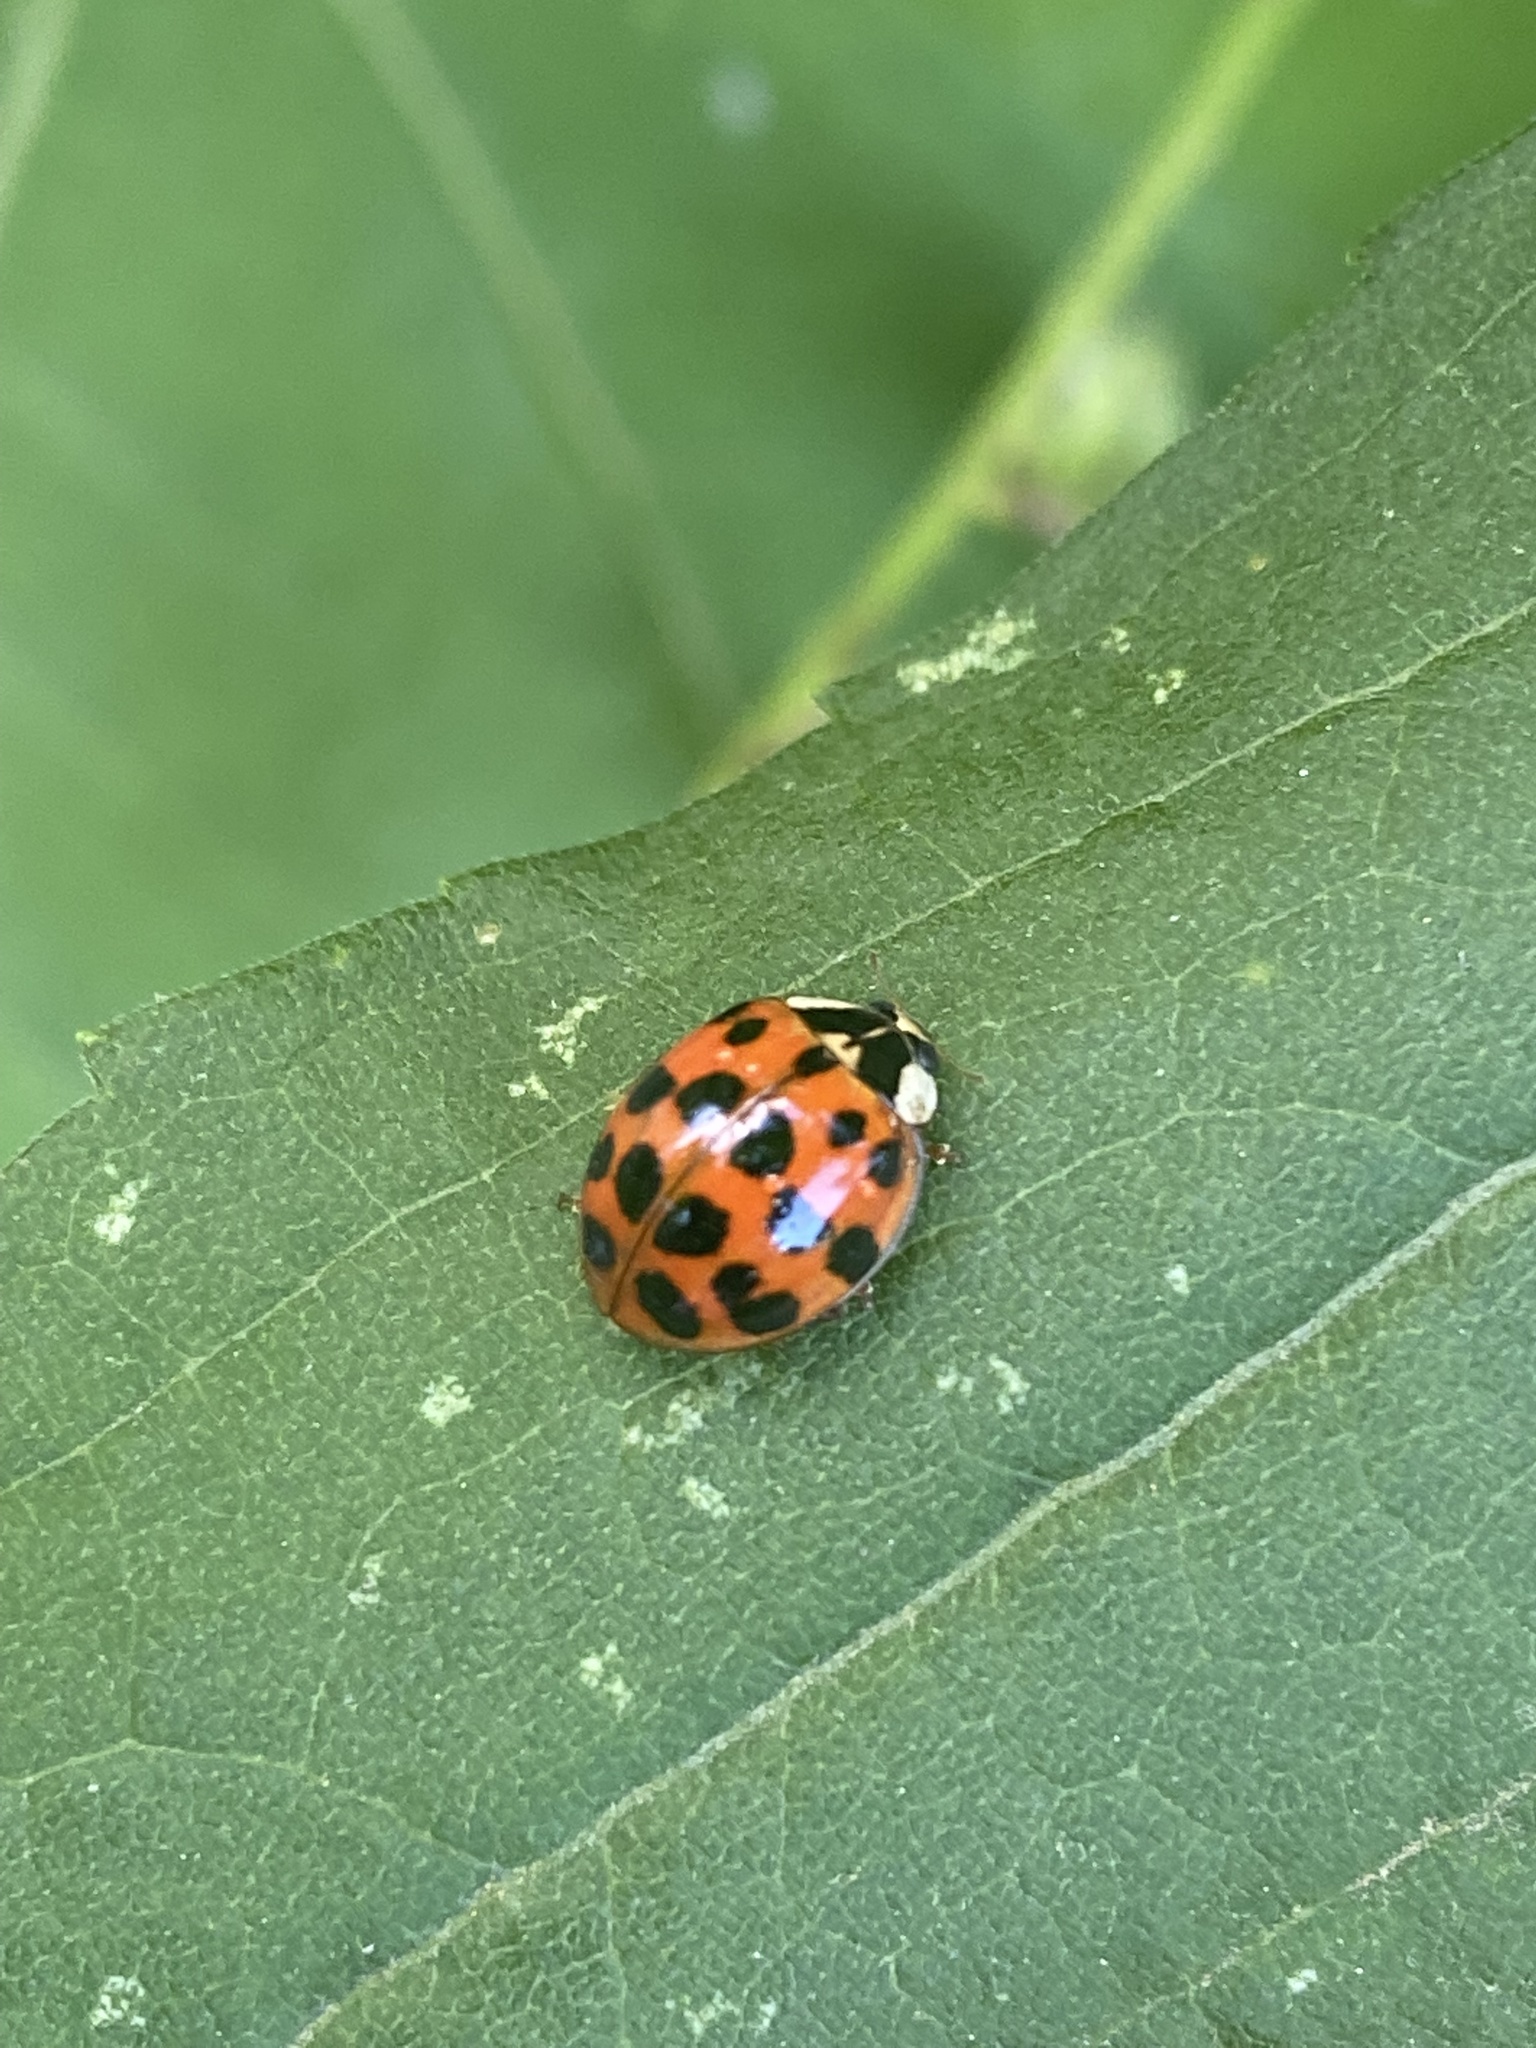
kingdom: Animalia
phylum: Arthropoda
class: Insecta
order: Coleoptera
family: Coccinellidae
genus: Harmonia
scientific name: Harmonia axyridis
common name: Harlequin ladybird
